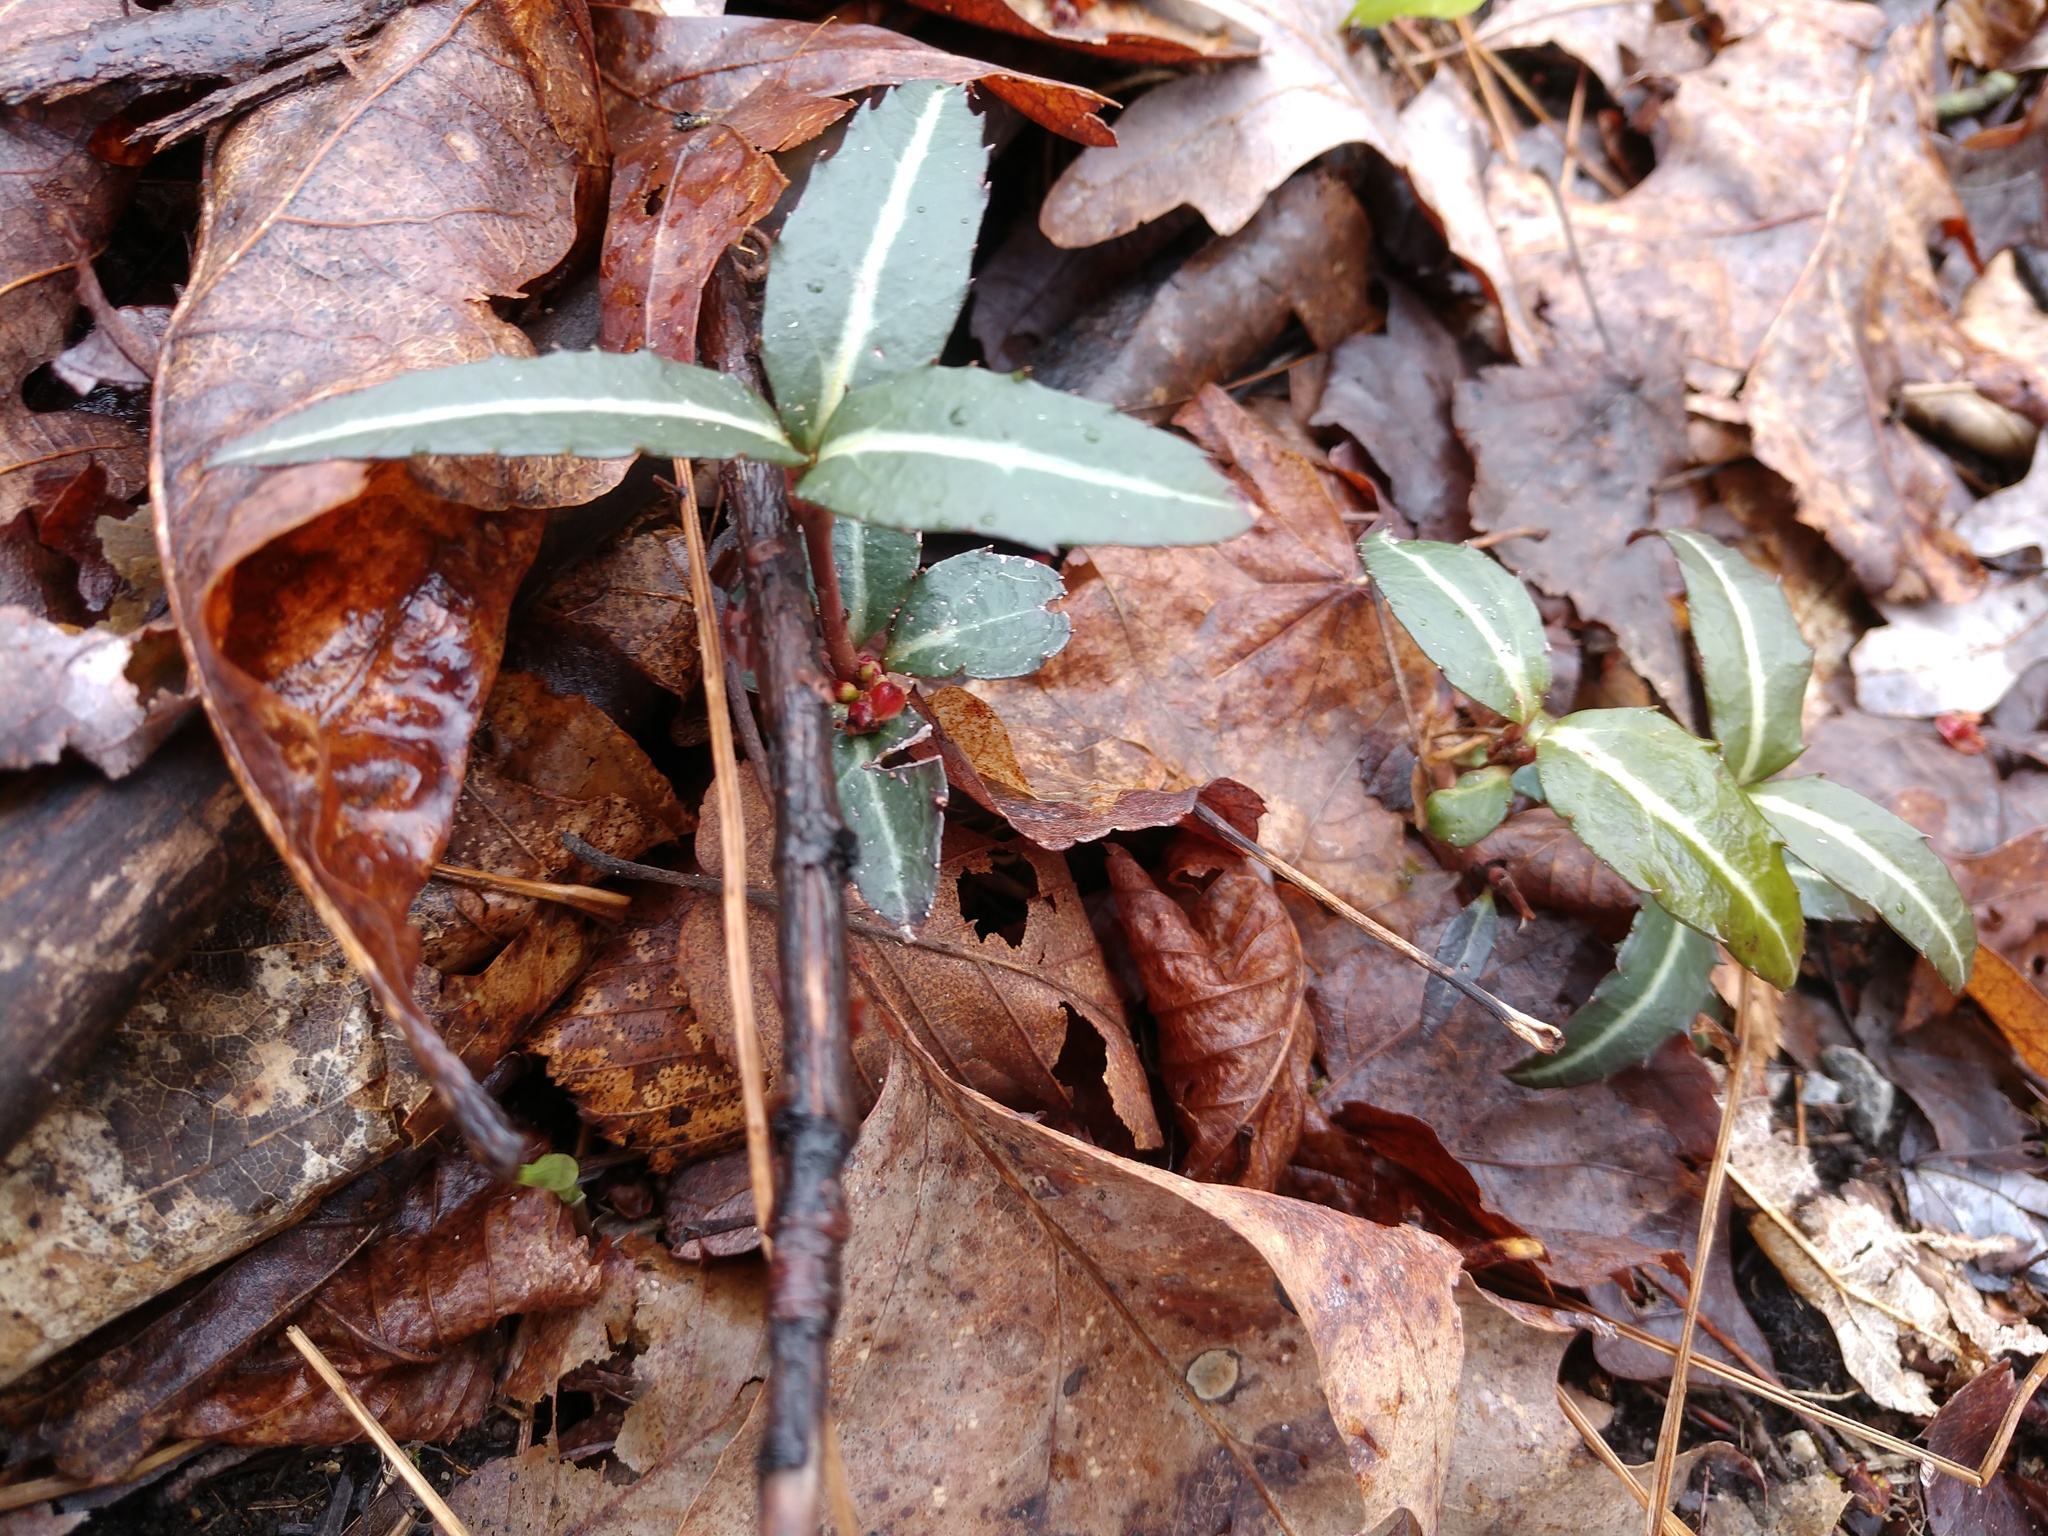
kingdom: Plantae
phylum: Tracheophyta
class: Magnoliopsida
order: Ericales
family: Ericaceae
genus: Chimaphila
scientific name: Chimaphila maculata
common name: Spotted pipsissewa
